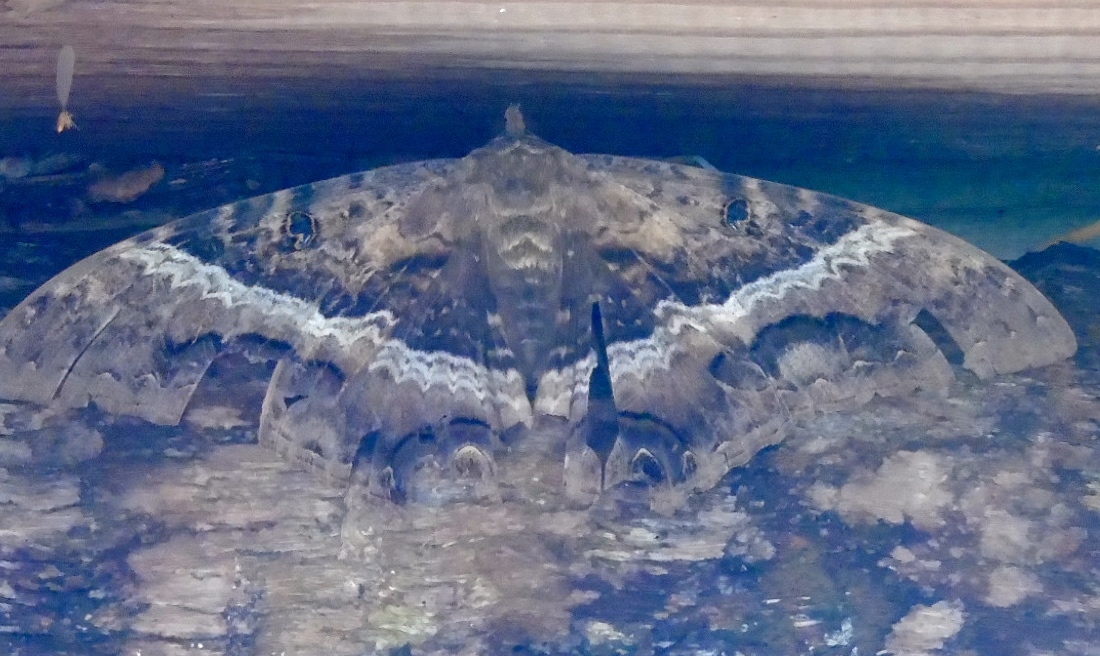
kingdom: Animalia
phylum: Arthropoda
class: Insecta
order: Lepidoptera
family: Erebidae
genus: Ascalapha
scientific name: Ascalapha odorata
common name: Black witch
